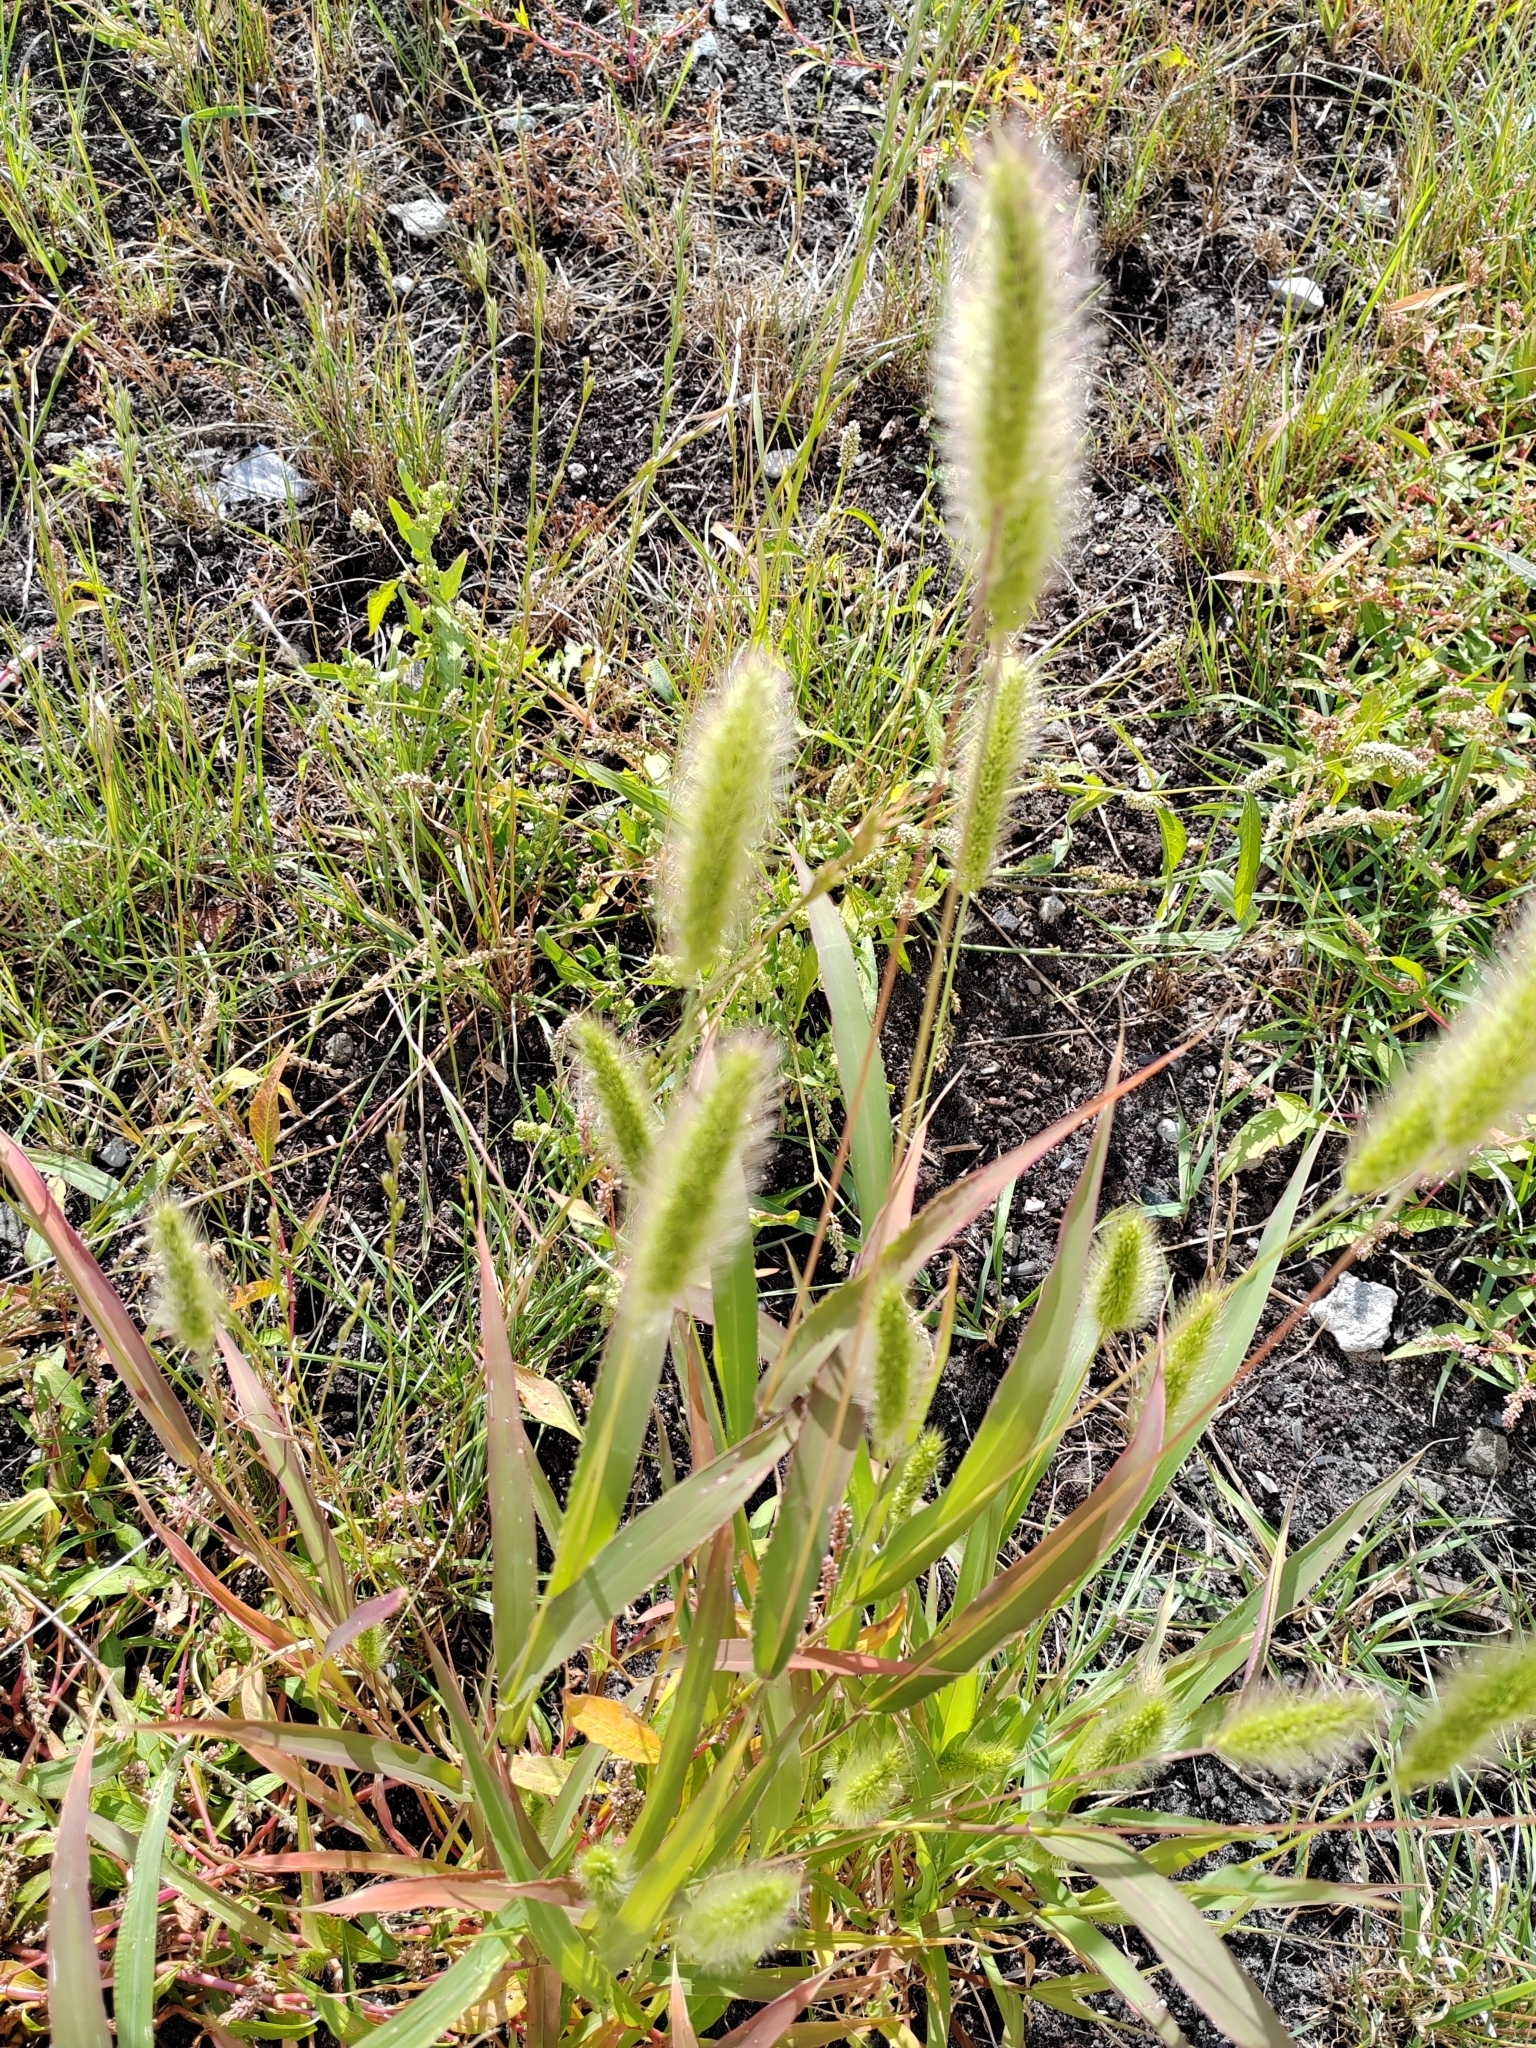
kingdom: Plantae
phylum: Tracheophyta
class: Liliopsida
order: Poales
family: Poaceae
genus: Setaria
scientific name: Setaria viridis
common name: Green bristlegrass
